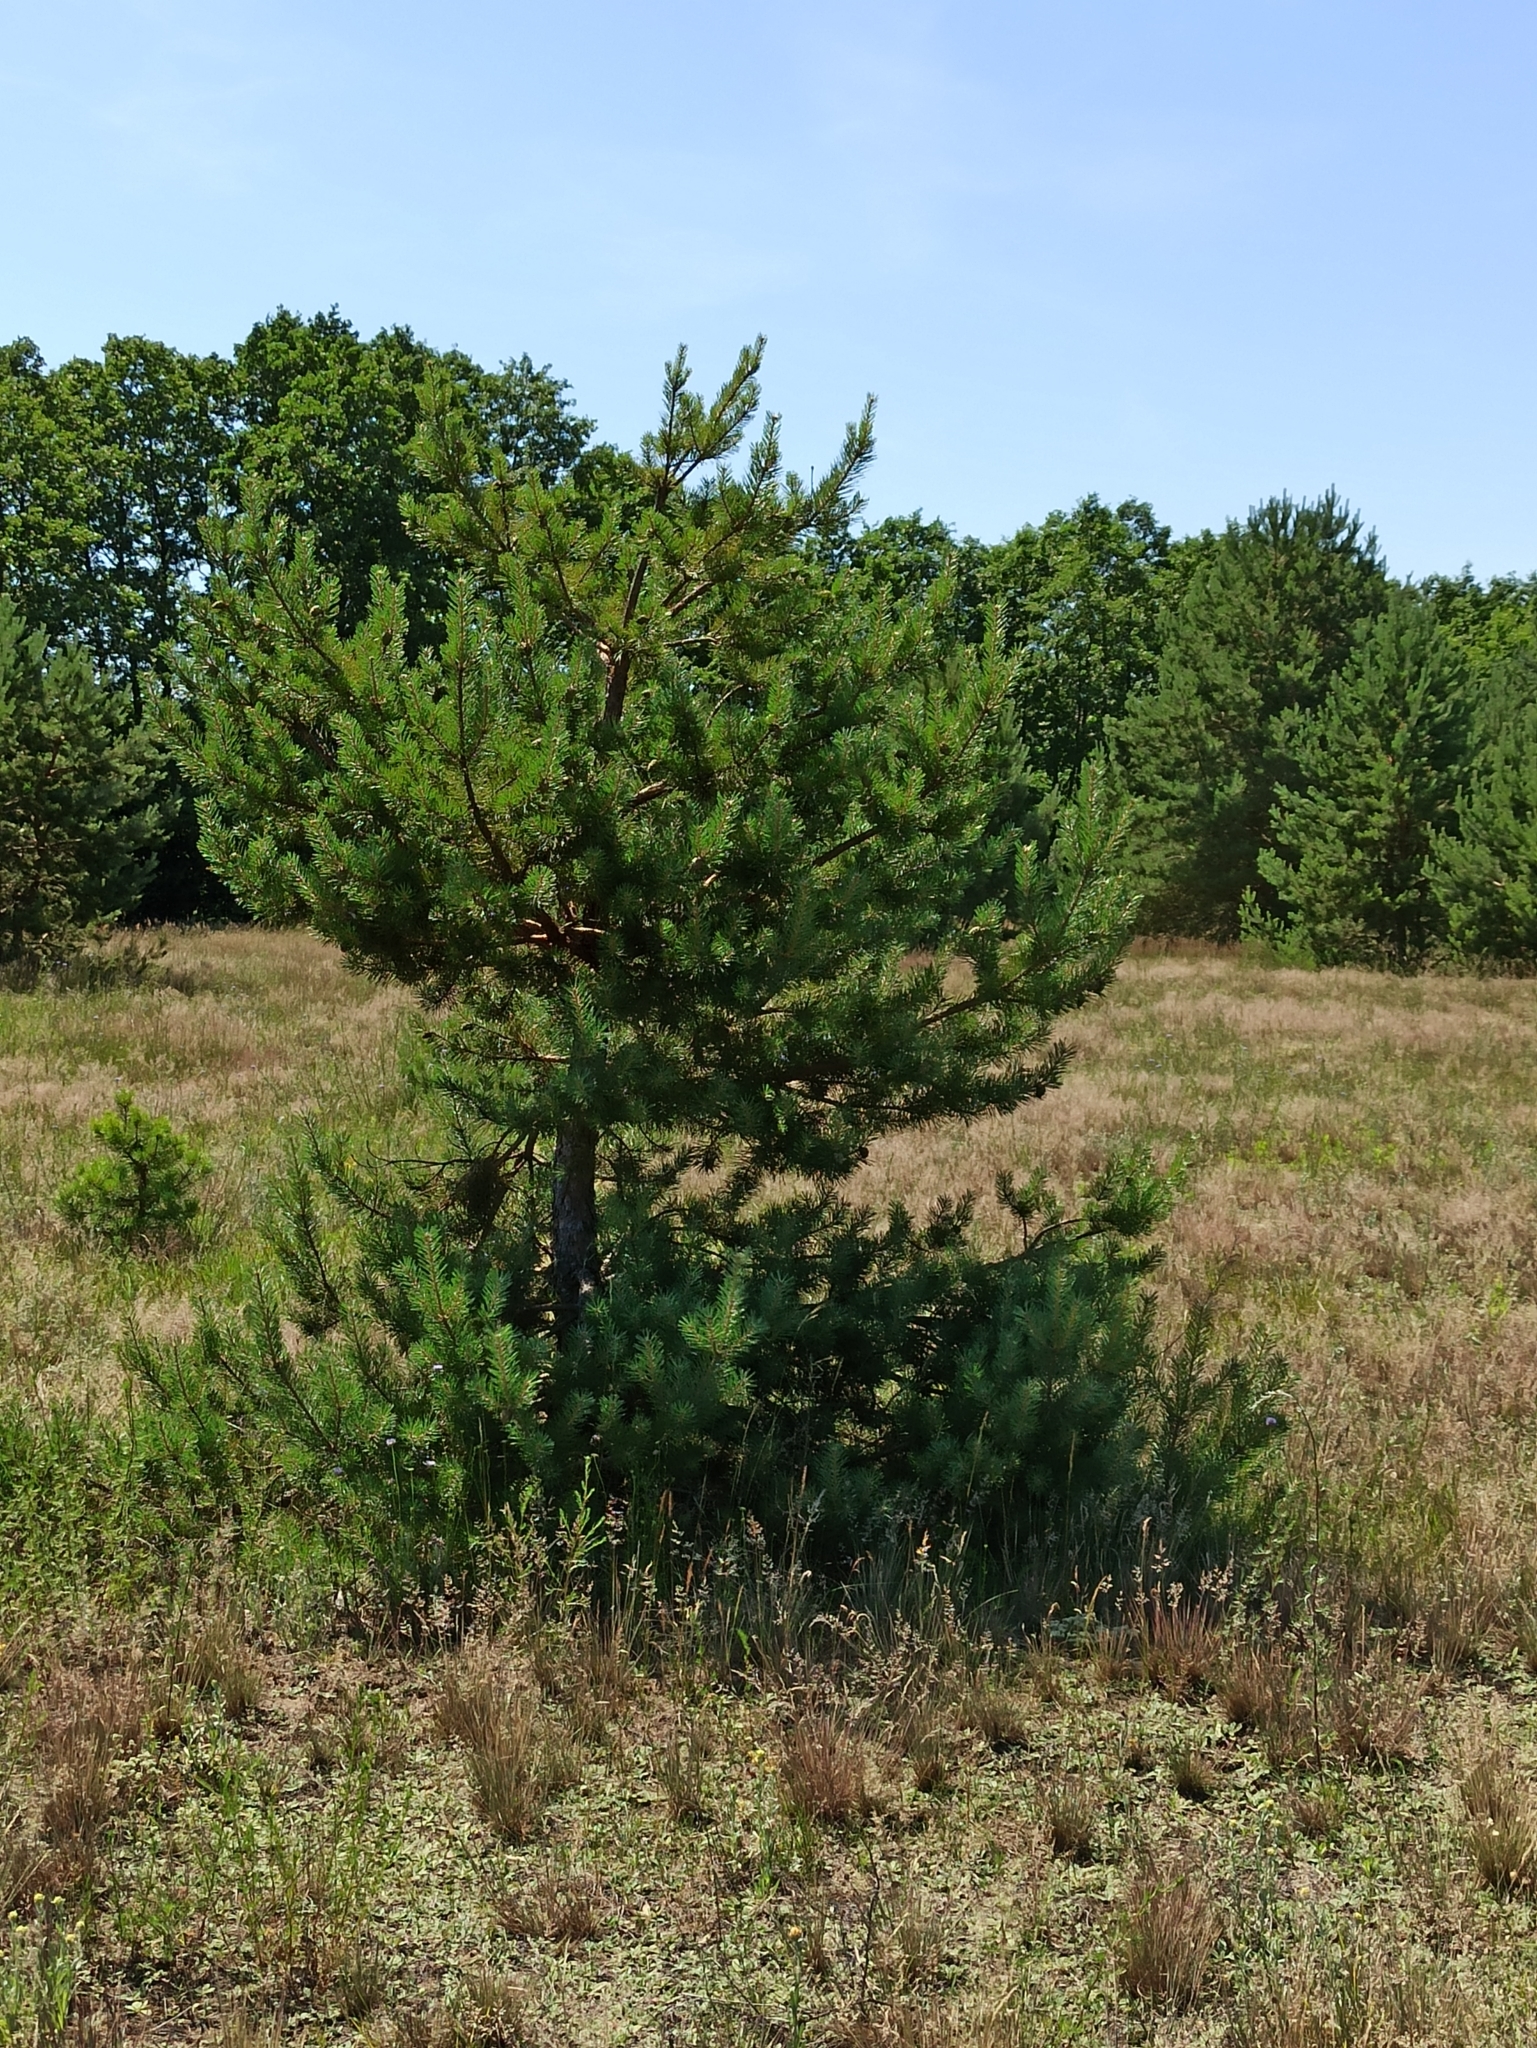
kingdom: Plantae
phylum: Tracheophyta
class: Pinopsida
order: Pinales
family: Pinaceae
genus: Pinus
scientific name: Pinus sylvestris
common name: Scots pine
